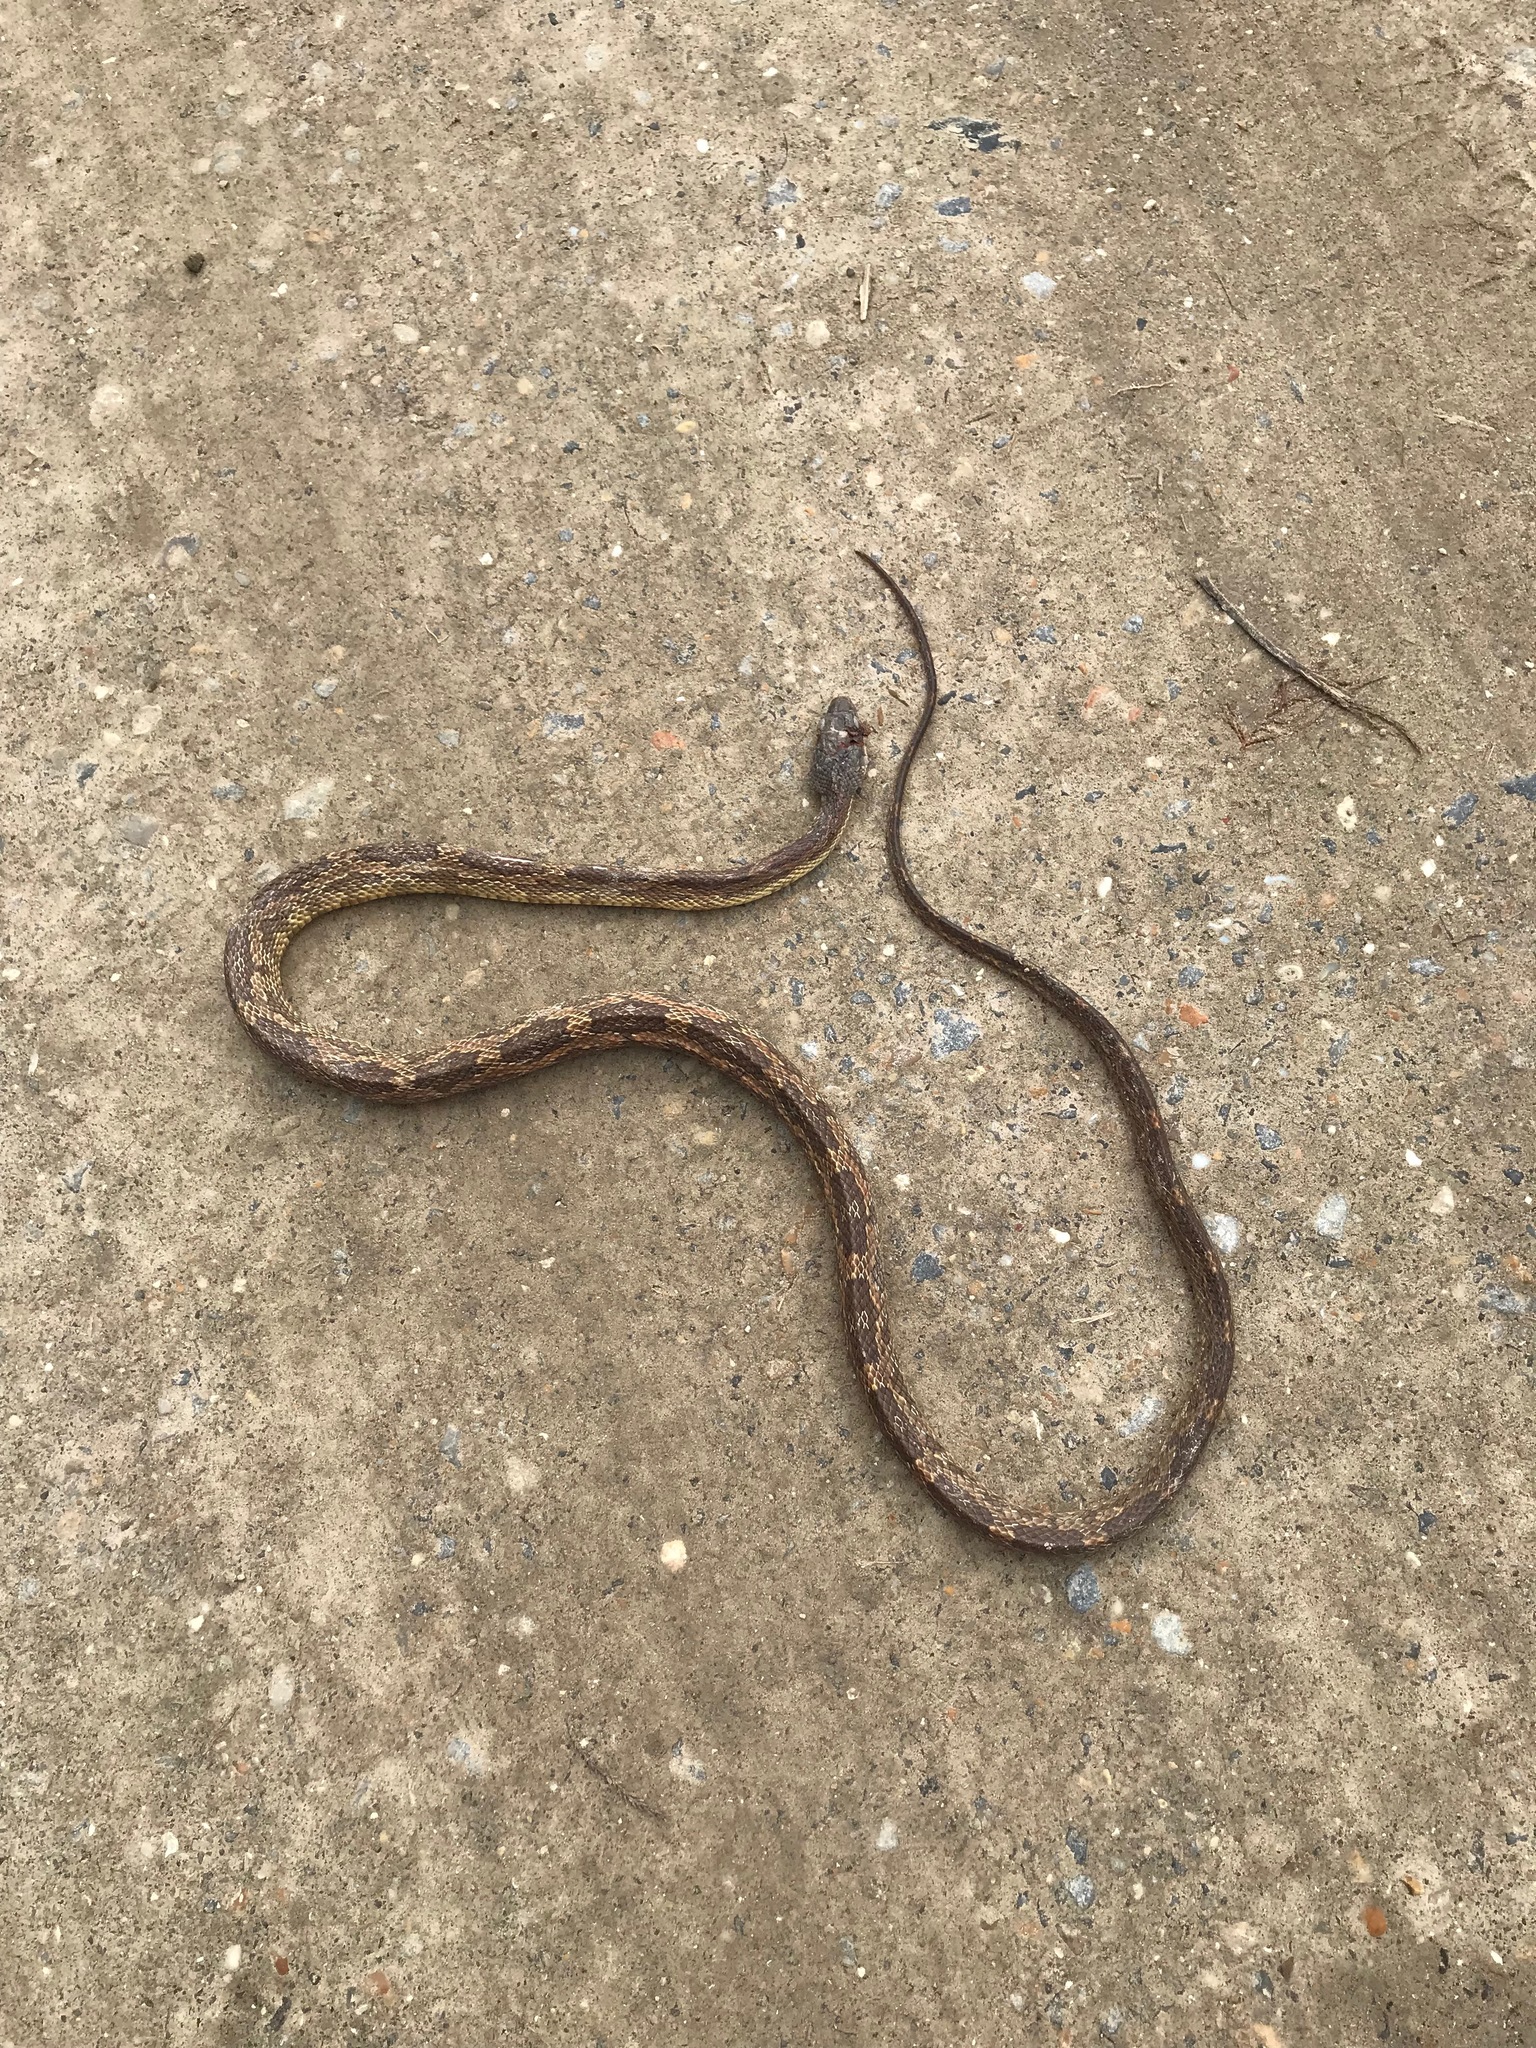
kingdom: Animalia
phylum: Chordata
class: Squamata
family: Colubridae
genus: Pantherophis
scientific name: Pantherophis obsoletus
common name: Black rat snake
